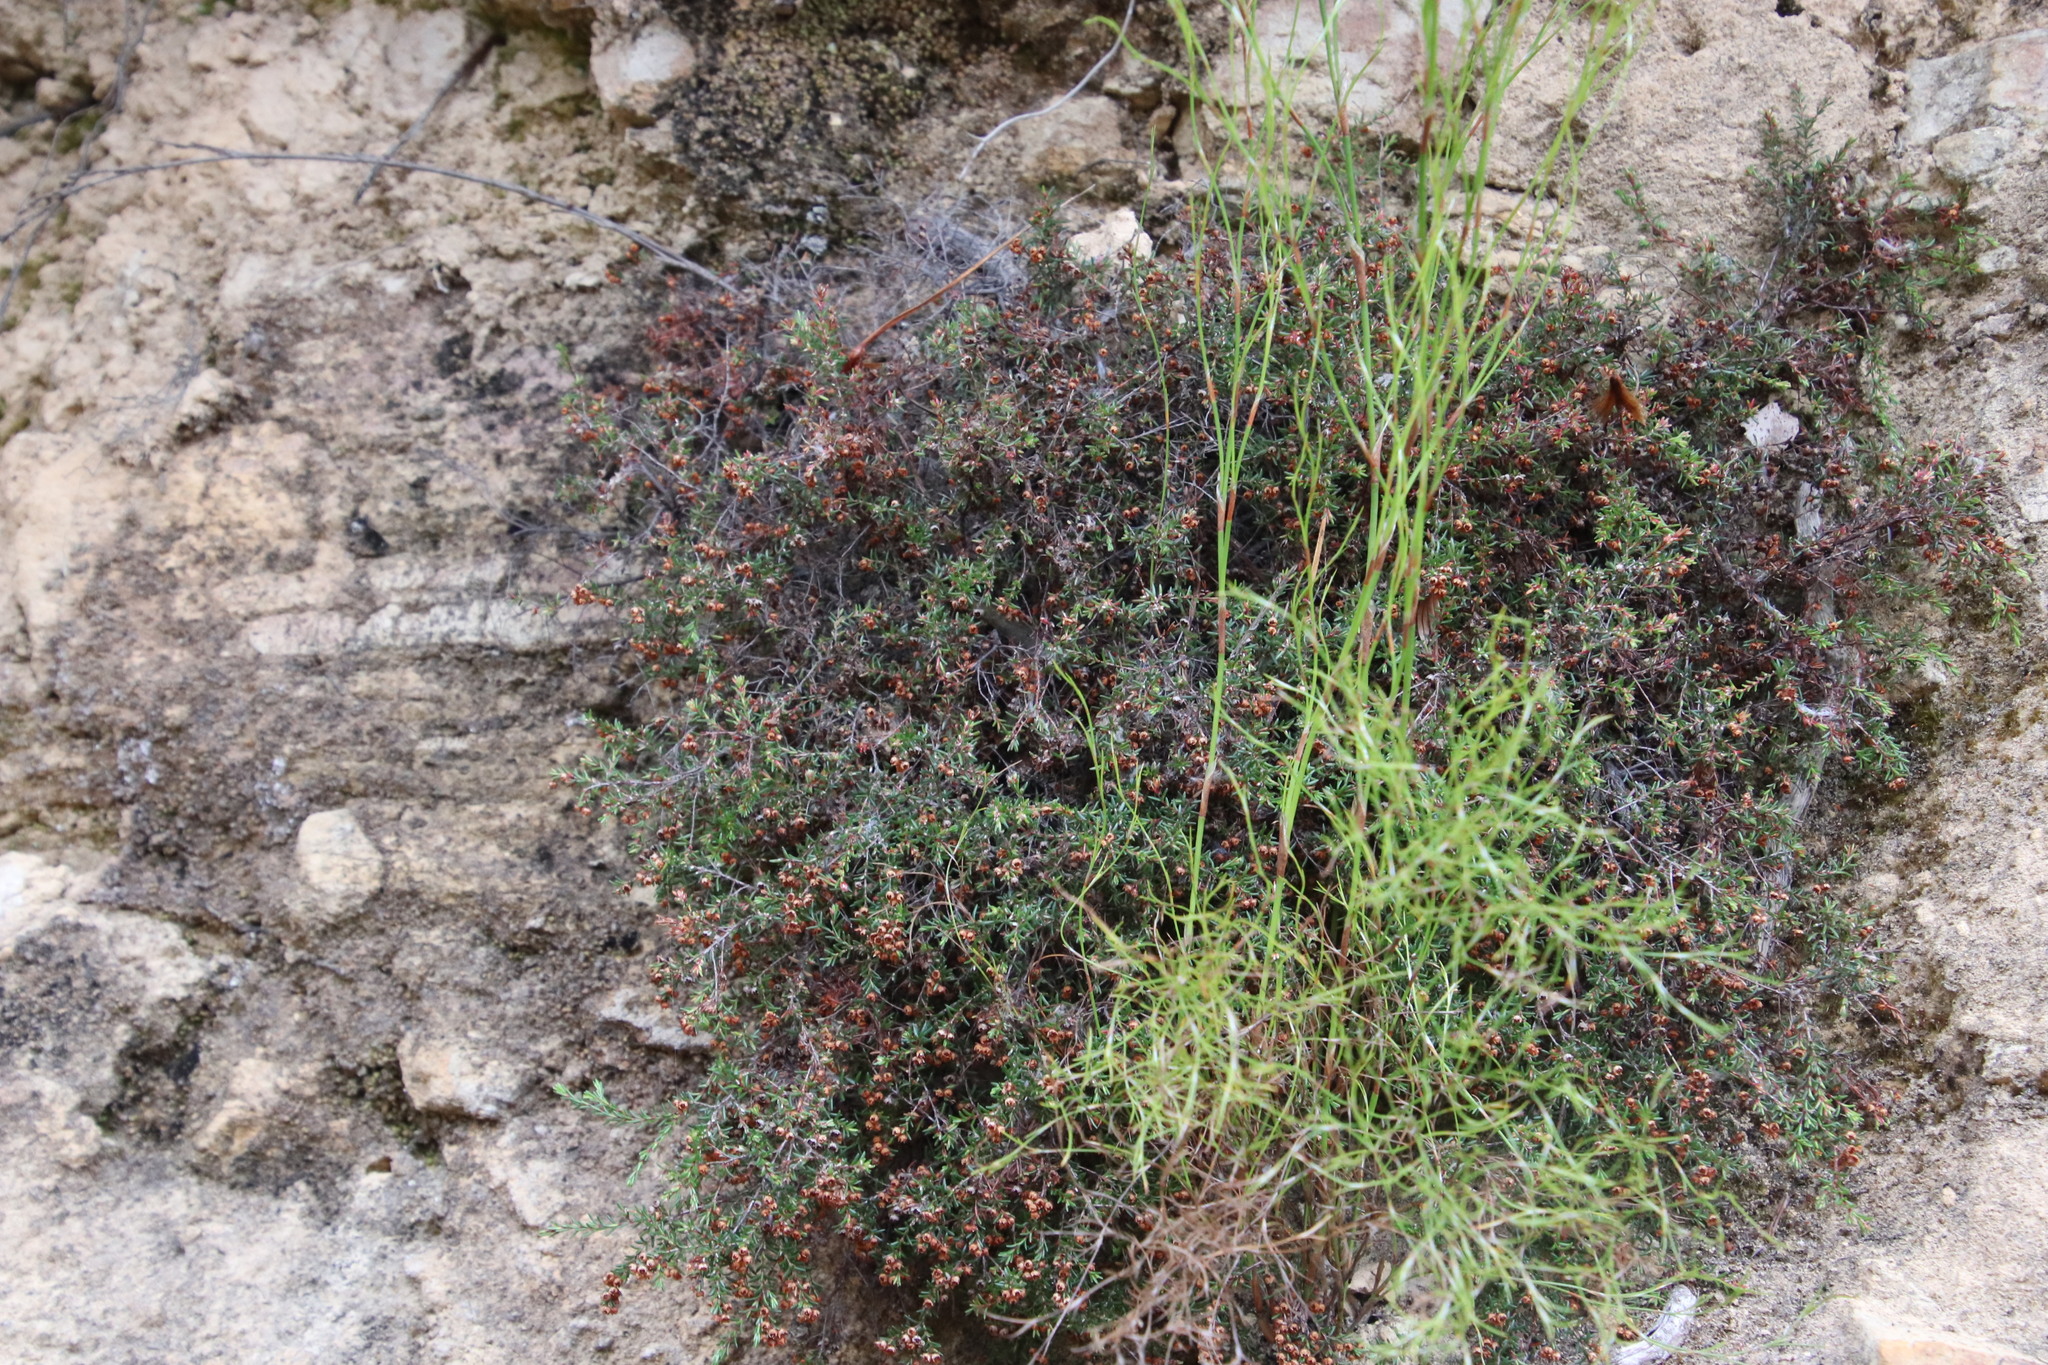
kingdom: Plantae
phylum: Tracheophyta
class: Magnoliopsida
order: Ericales
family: Ericaceae
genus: Erica
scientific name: Erica curvirostris
